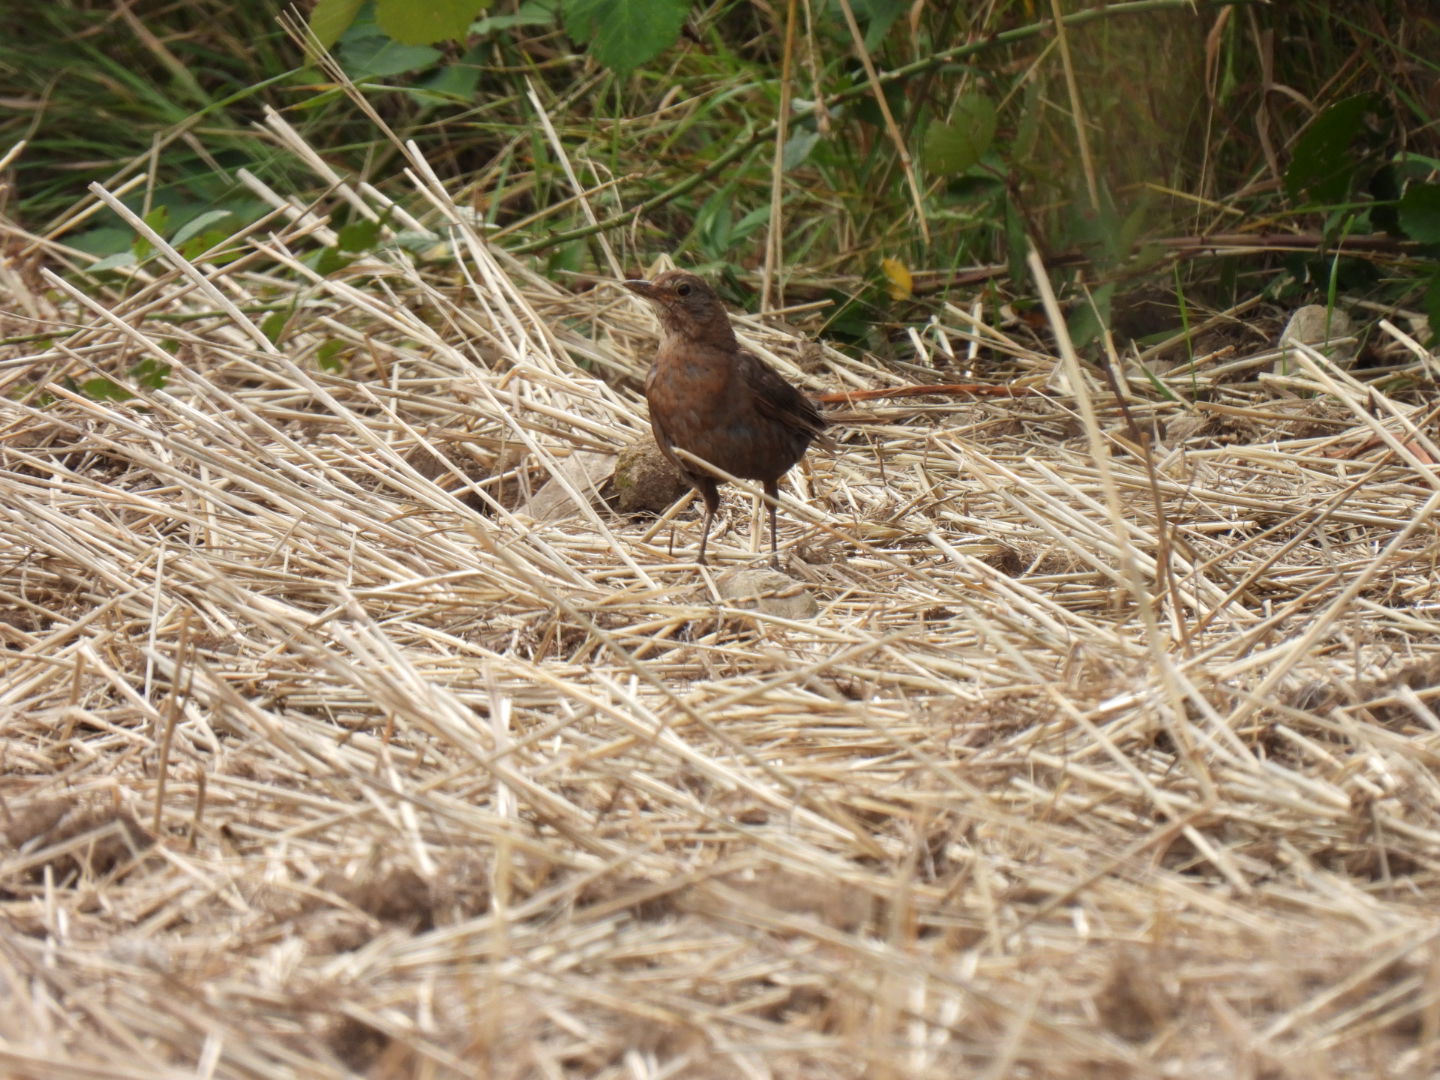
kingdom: Animalia
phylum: Chordata
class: Aves
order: Passeriformes
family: Turdidae
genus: Turdus
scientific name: Turdus merula
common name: Common blackbird
